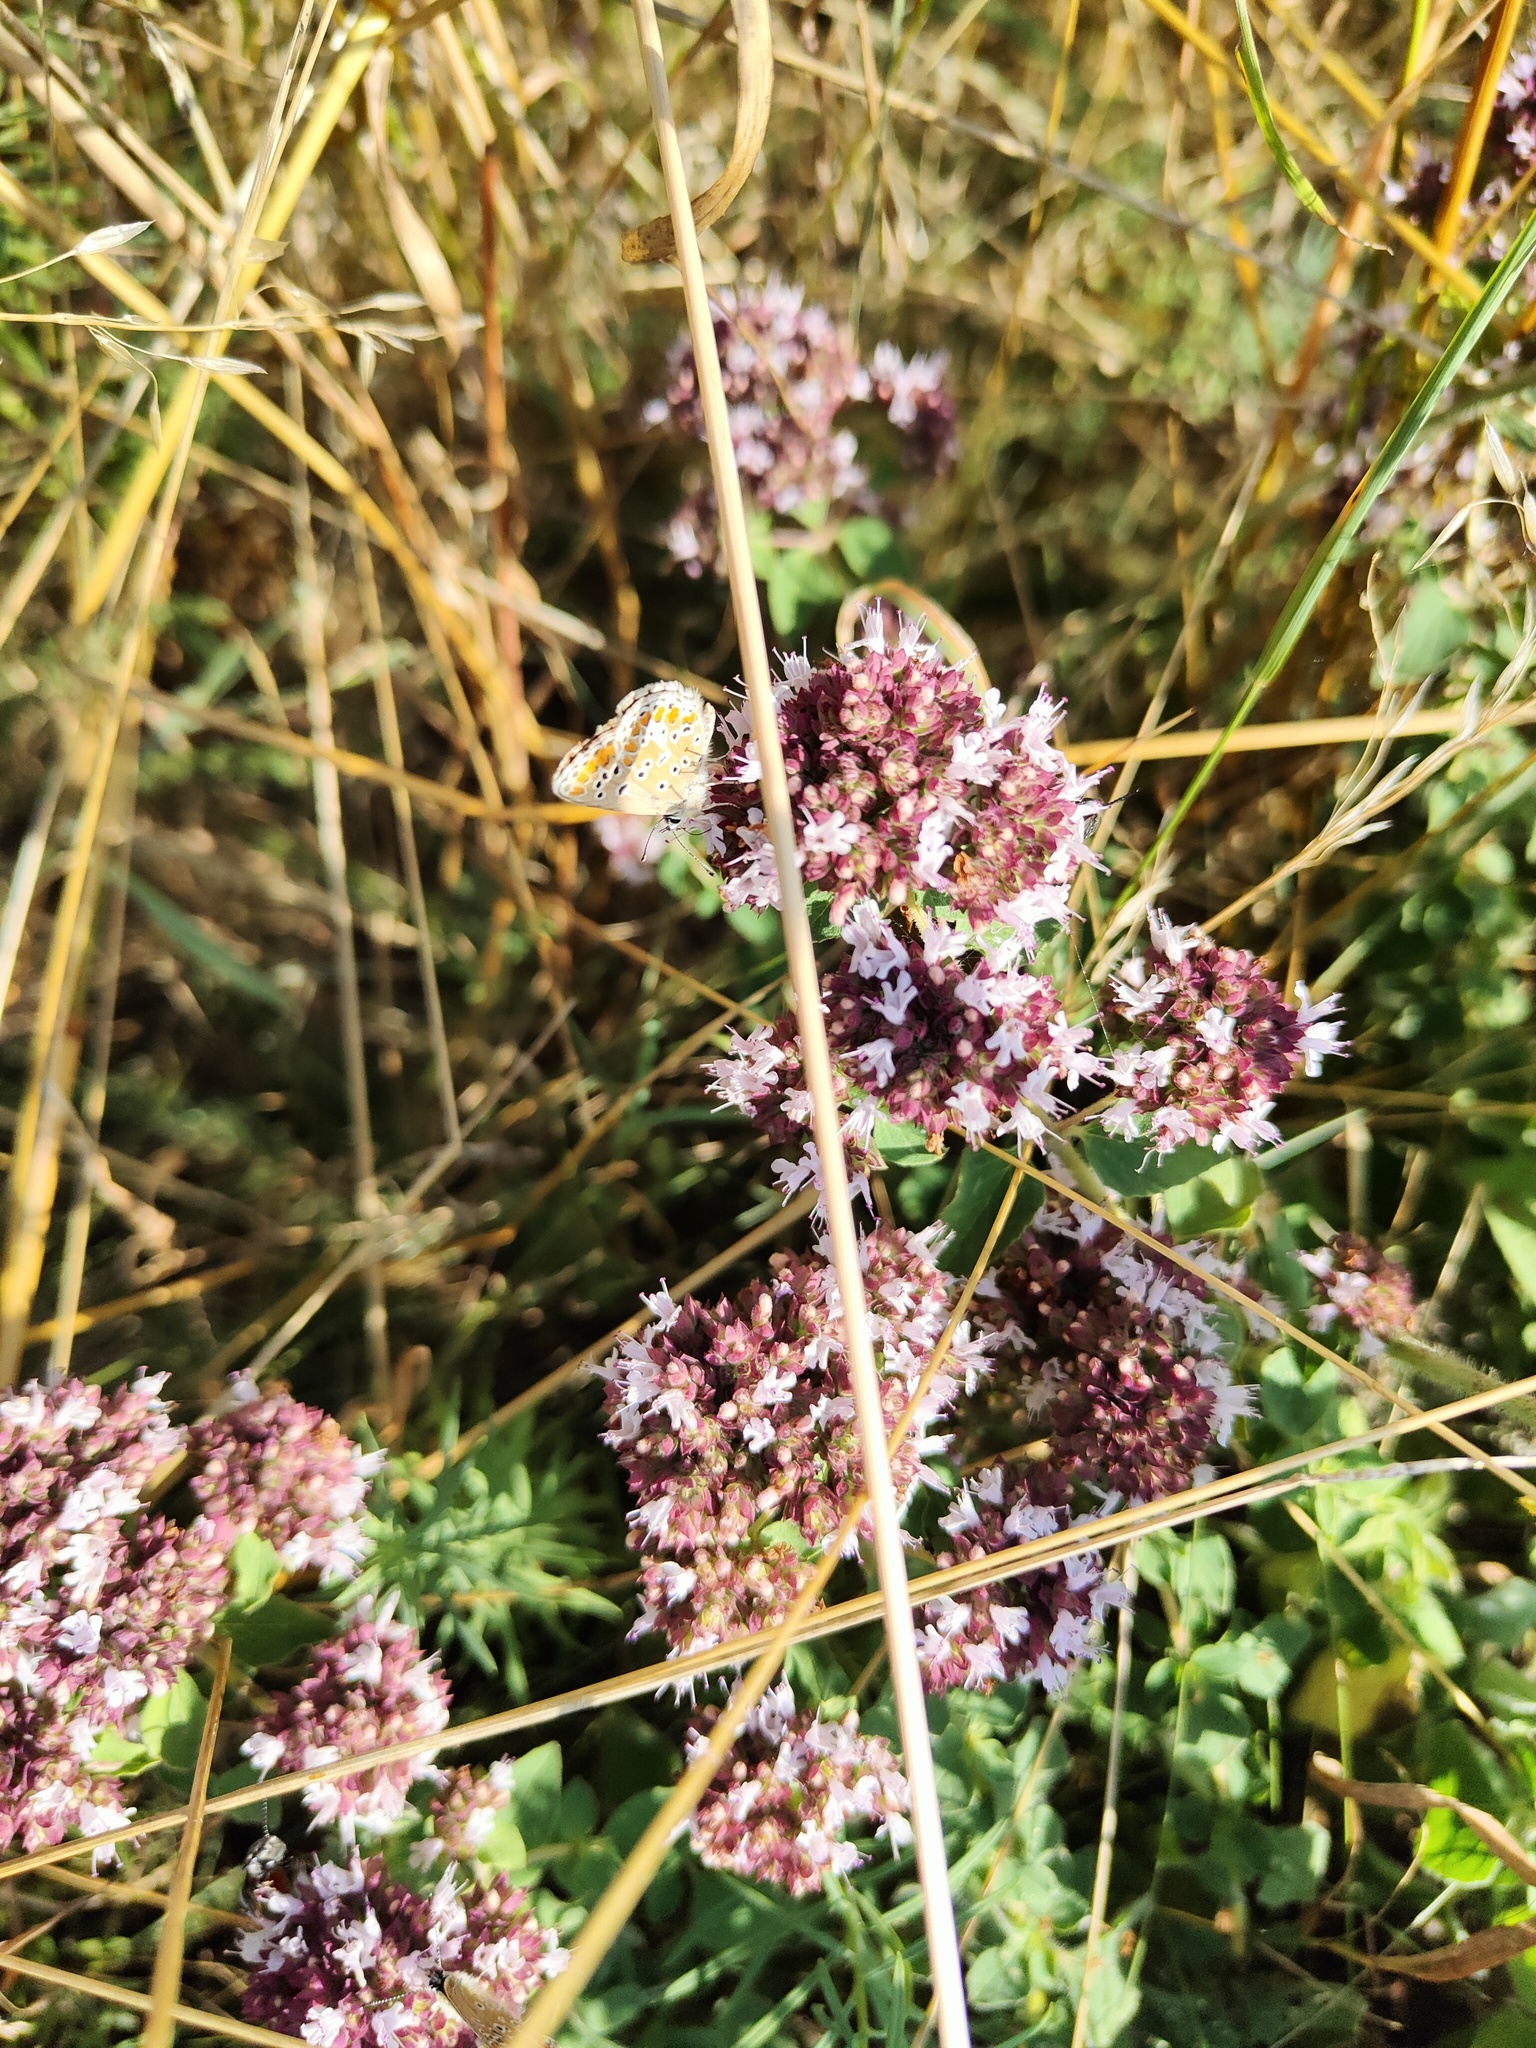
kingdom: Animalia
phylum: Arthropoda
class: Insecta
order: Lepidoptera
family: Lycaenidae
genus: Aricia
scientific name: Aricia agestis
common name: Brown argus
